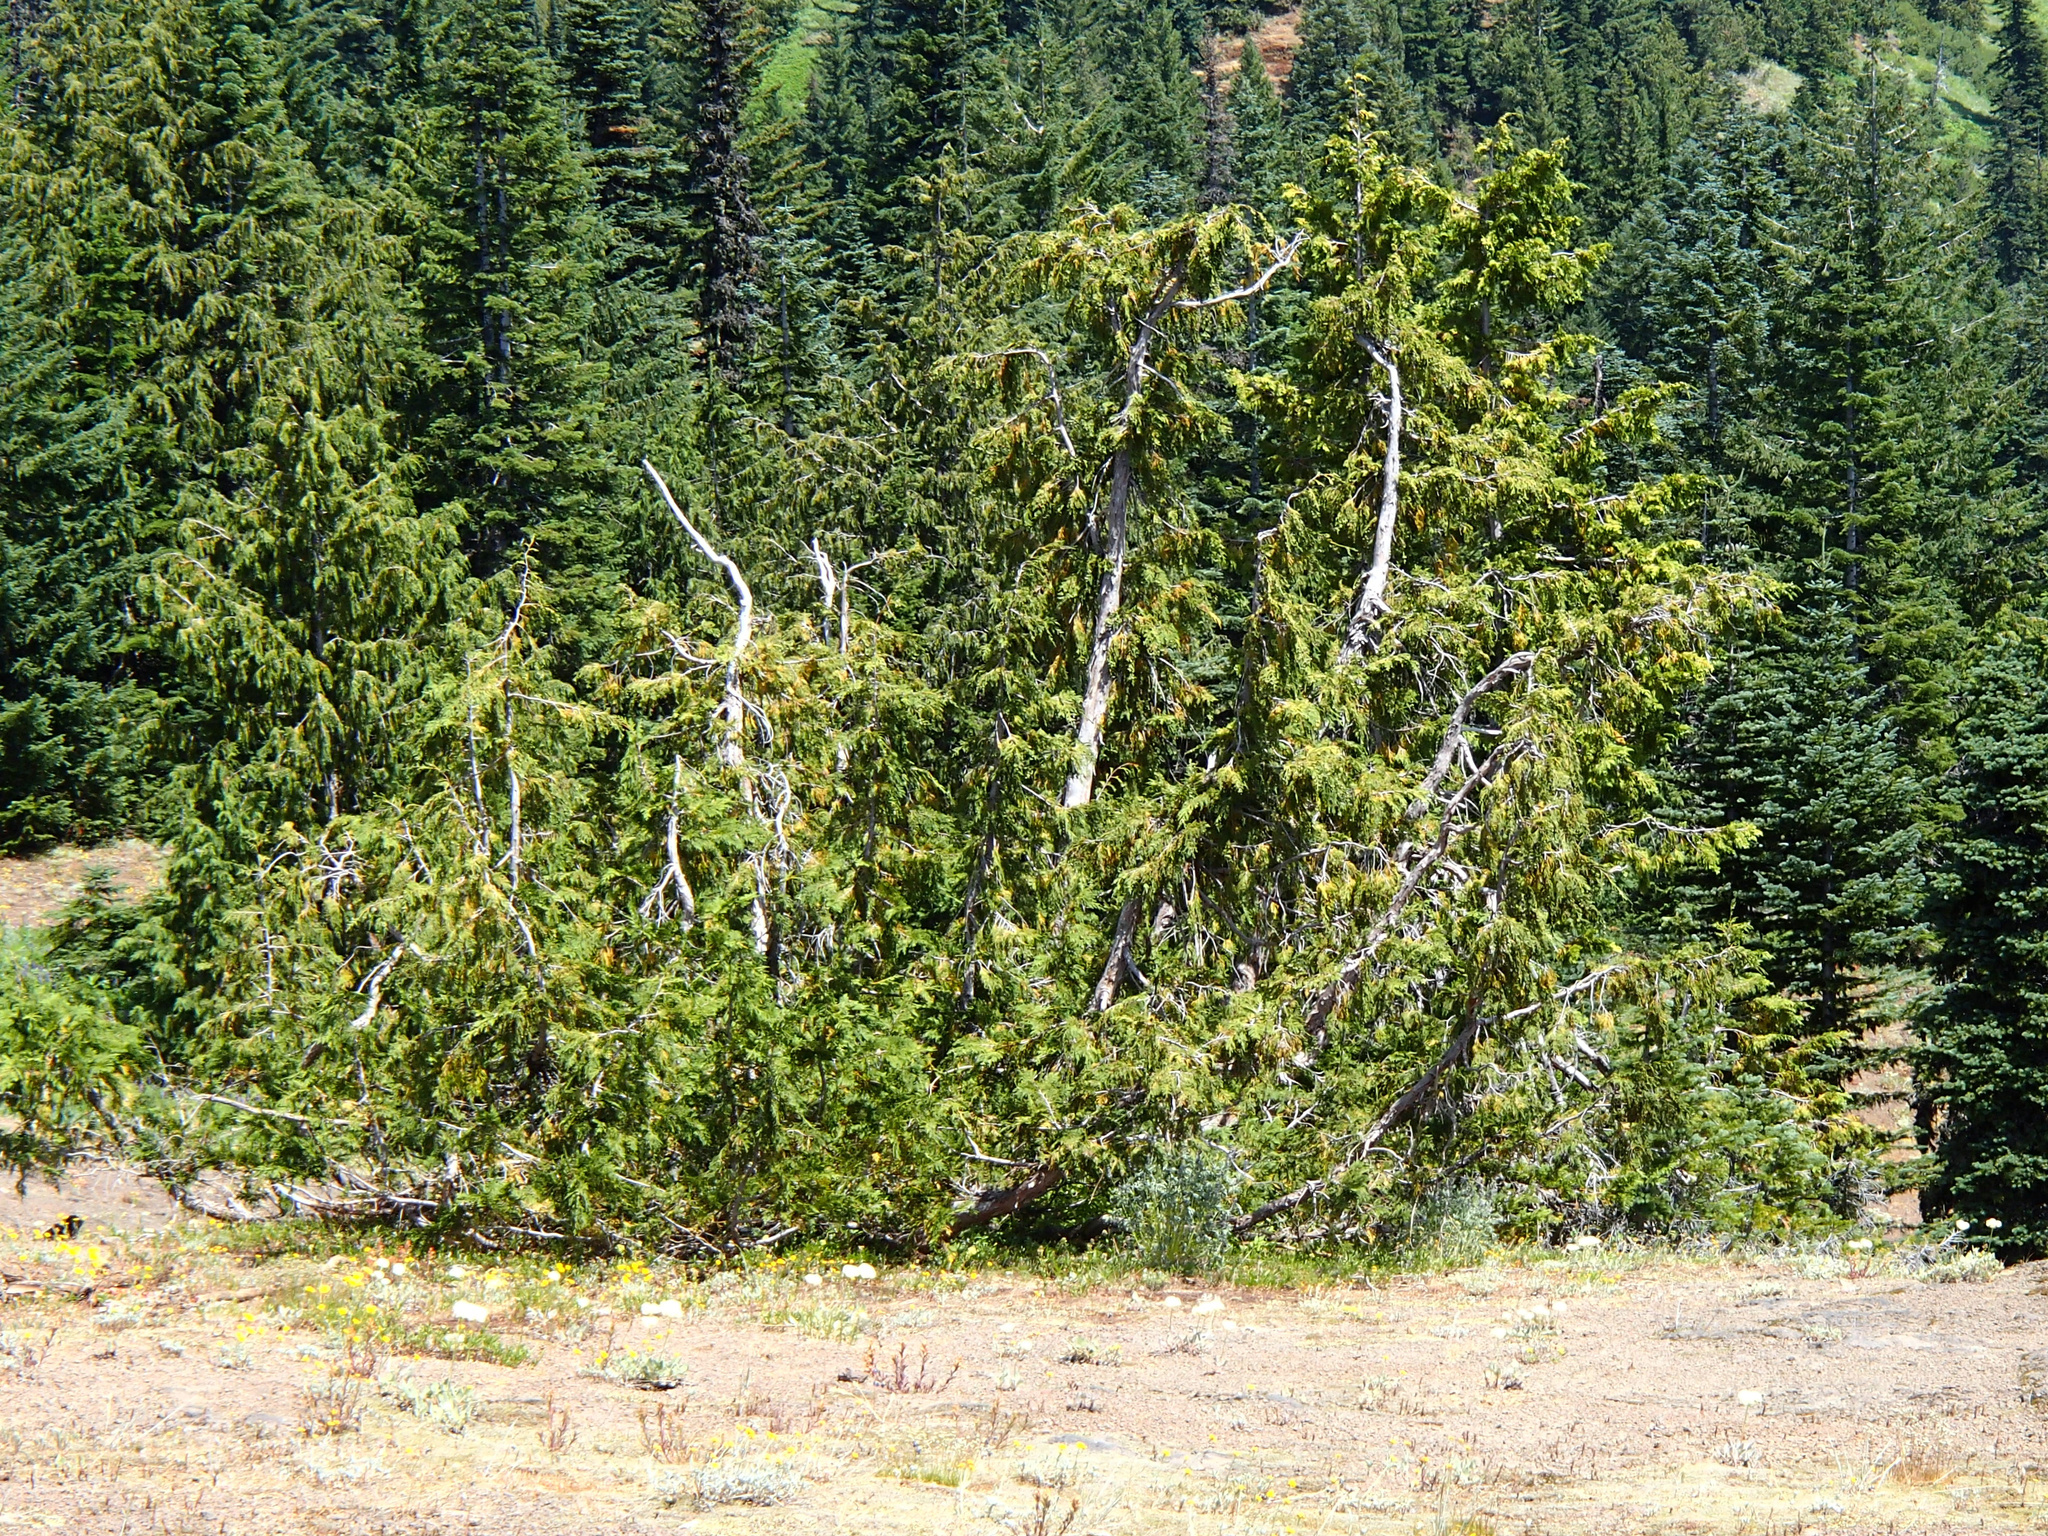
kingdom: Plantae
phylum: Tracheophyta
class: Pinopsida
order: Pinales
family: Cupressaceae
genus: Xanthocyparis
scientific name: Xanthocyparis nootkatensis
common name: Nootka cypress
